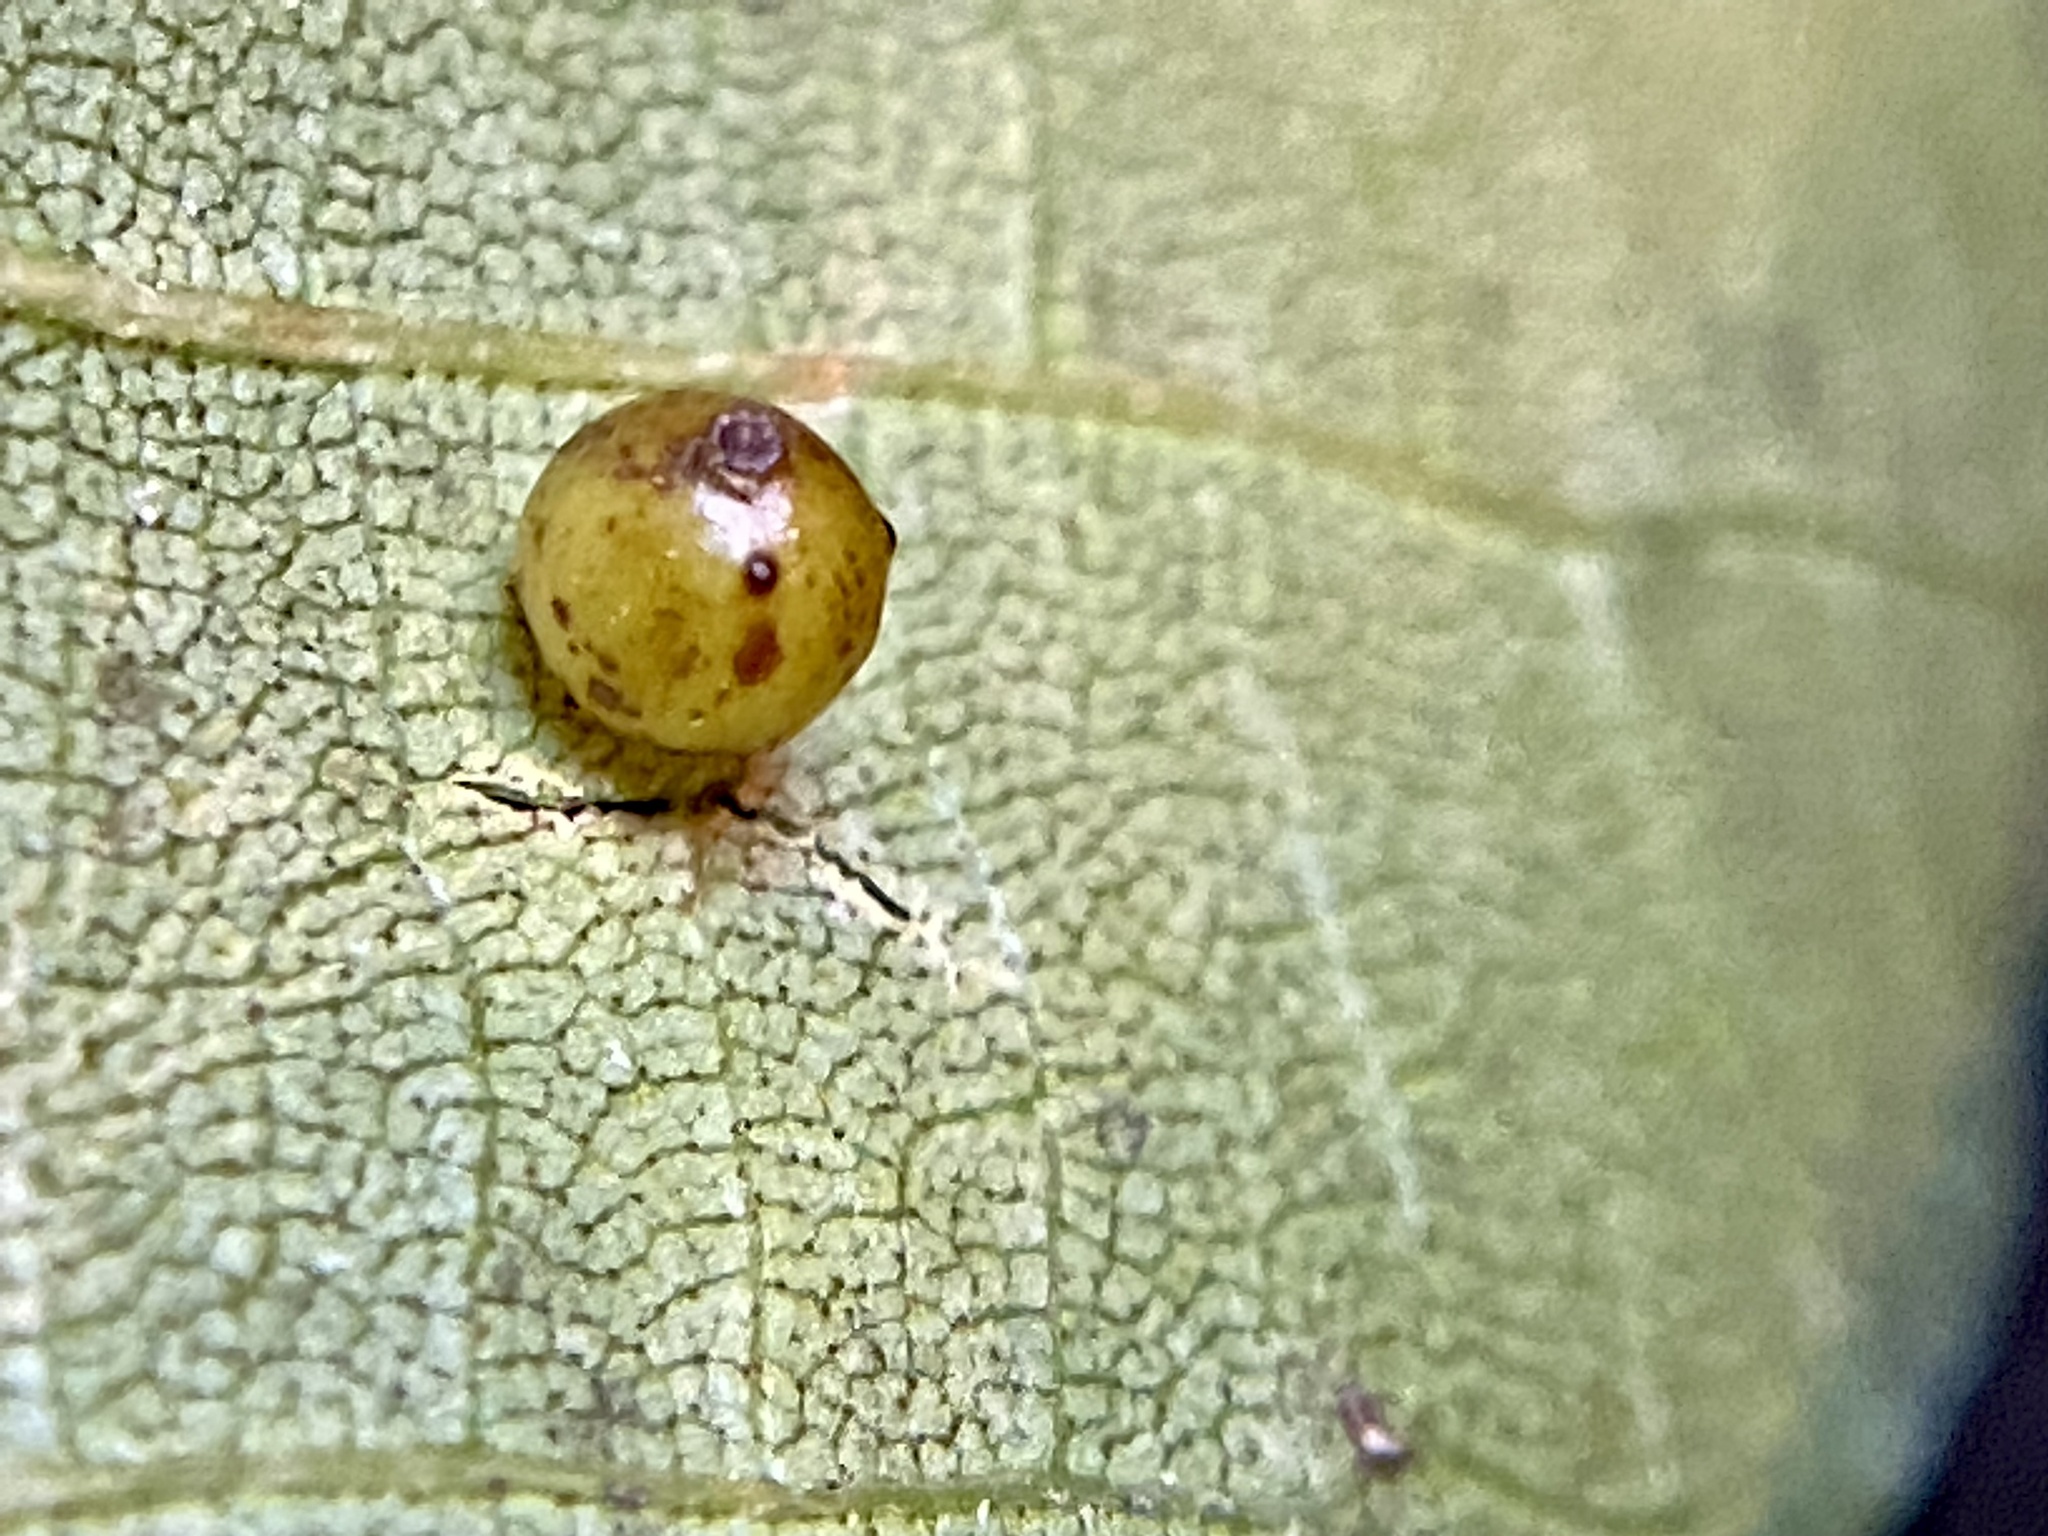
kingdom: Animalia
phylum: Arthropoda
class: Insecta
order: Diptera
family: Cecidomyiidae
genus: Caryomyia
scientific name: Caryomyia leviglobus
